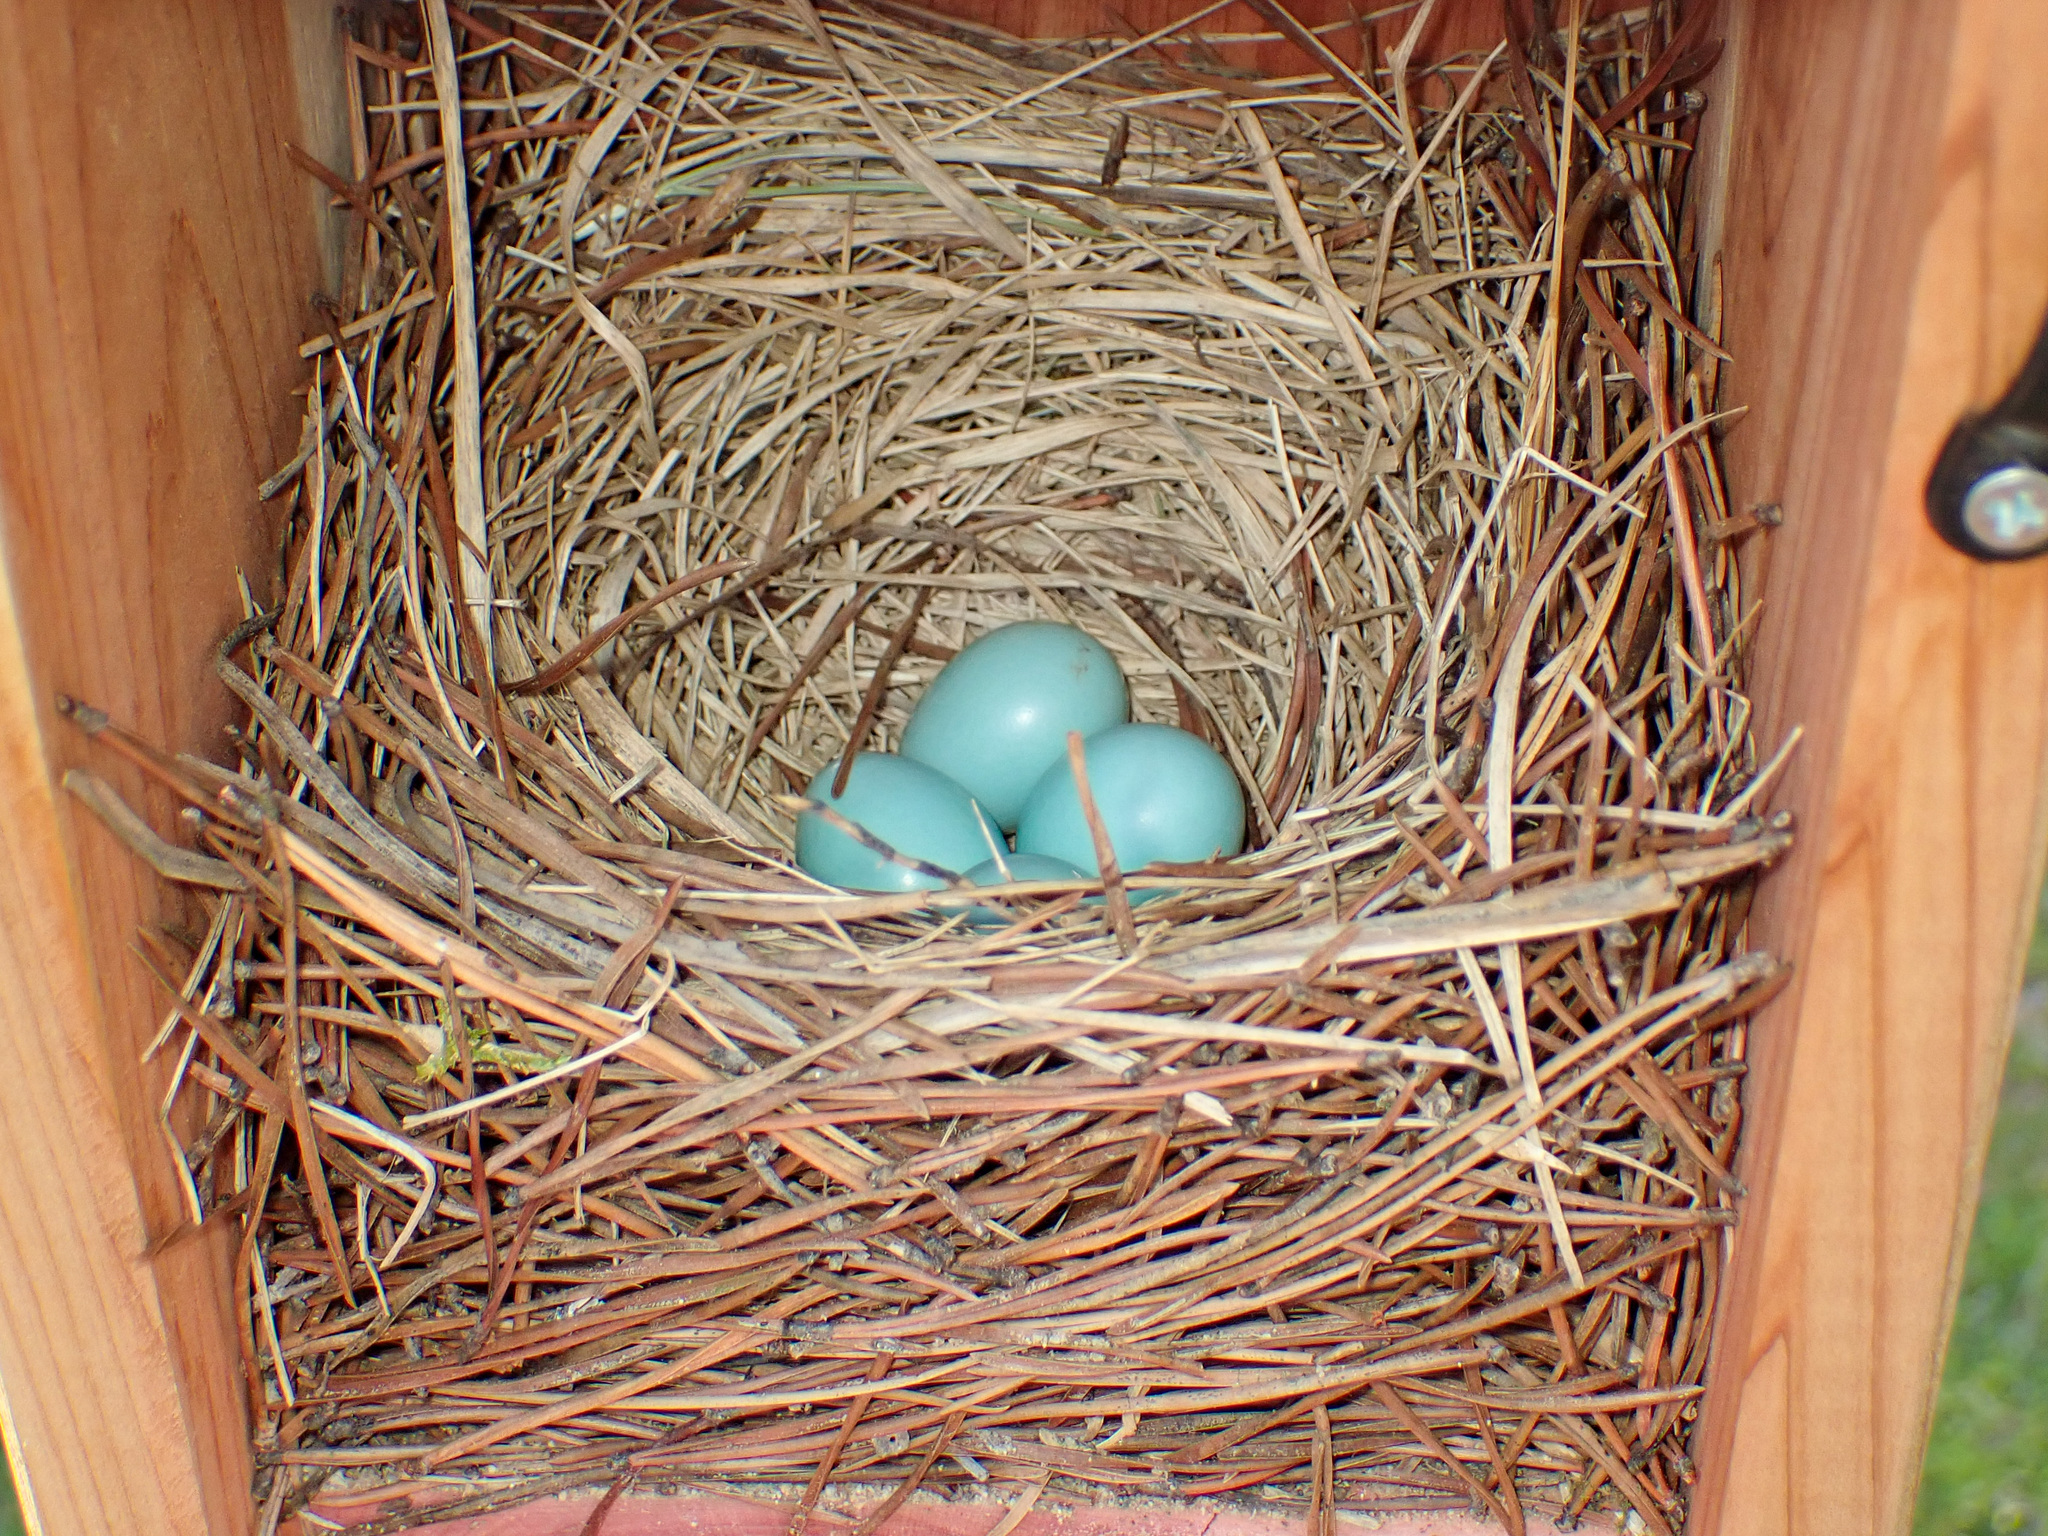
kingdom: Animalia
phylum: Chordata
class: Aves
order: Passeriformes
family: Turdidae
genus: Sialia
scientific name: Sialia sialis
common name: Eastern bluebird
